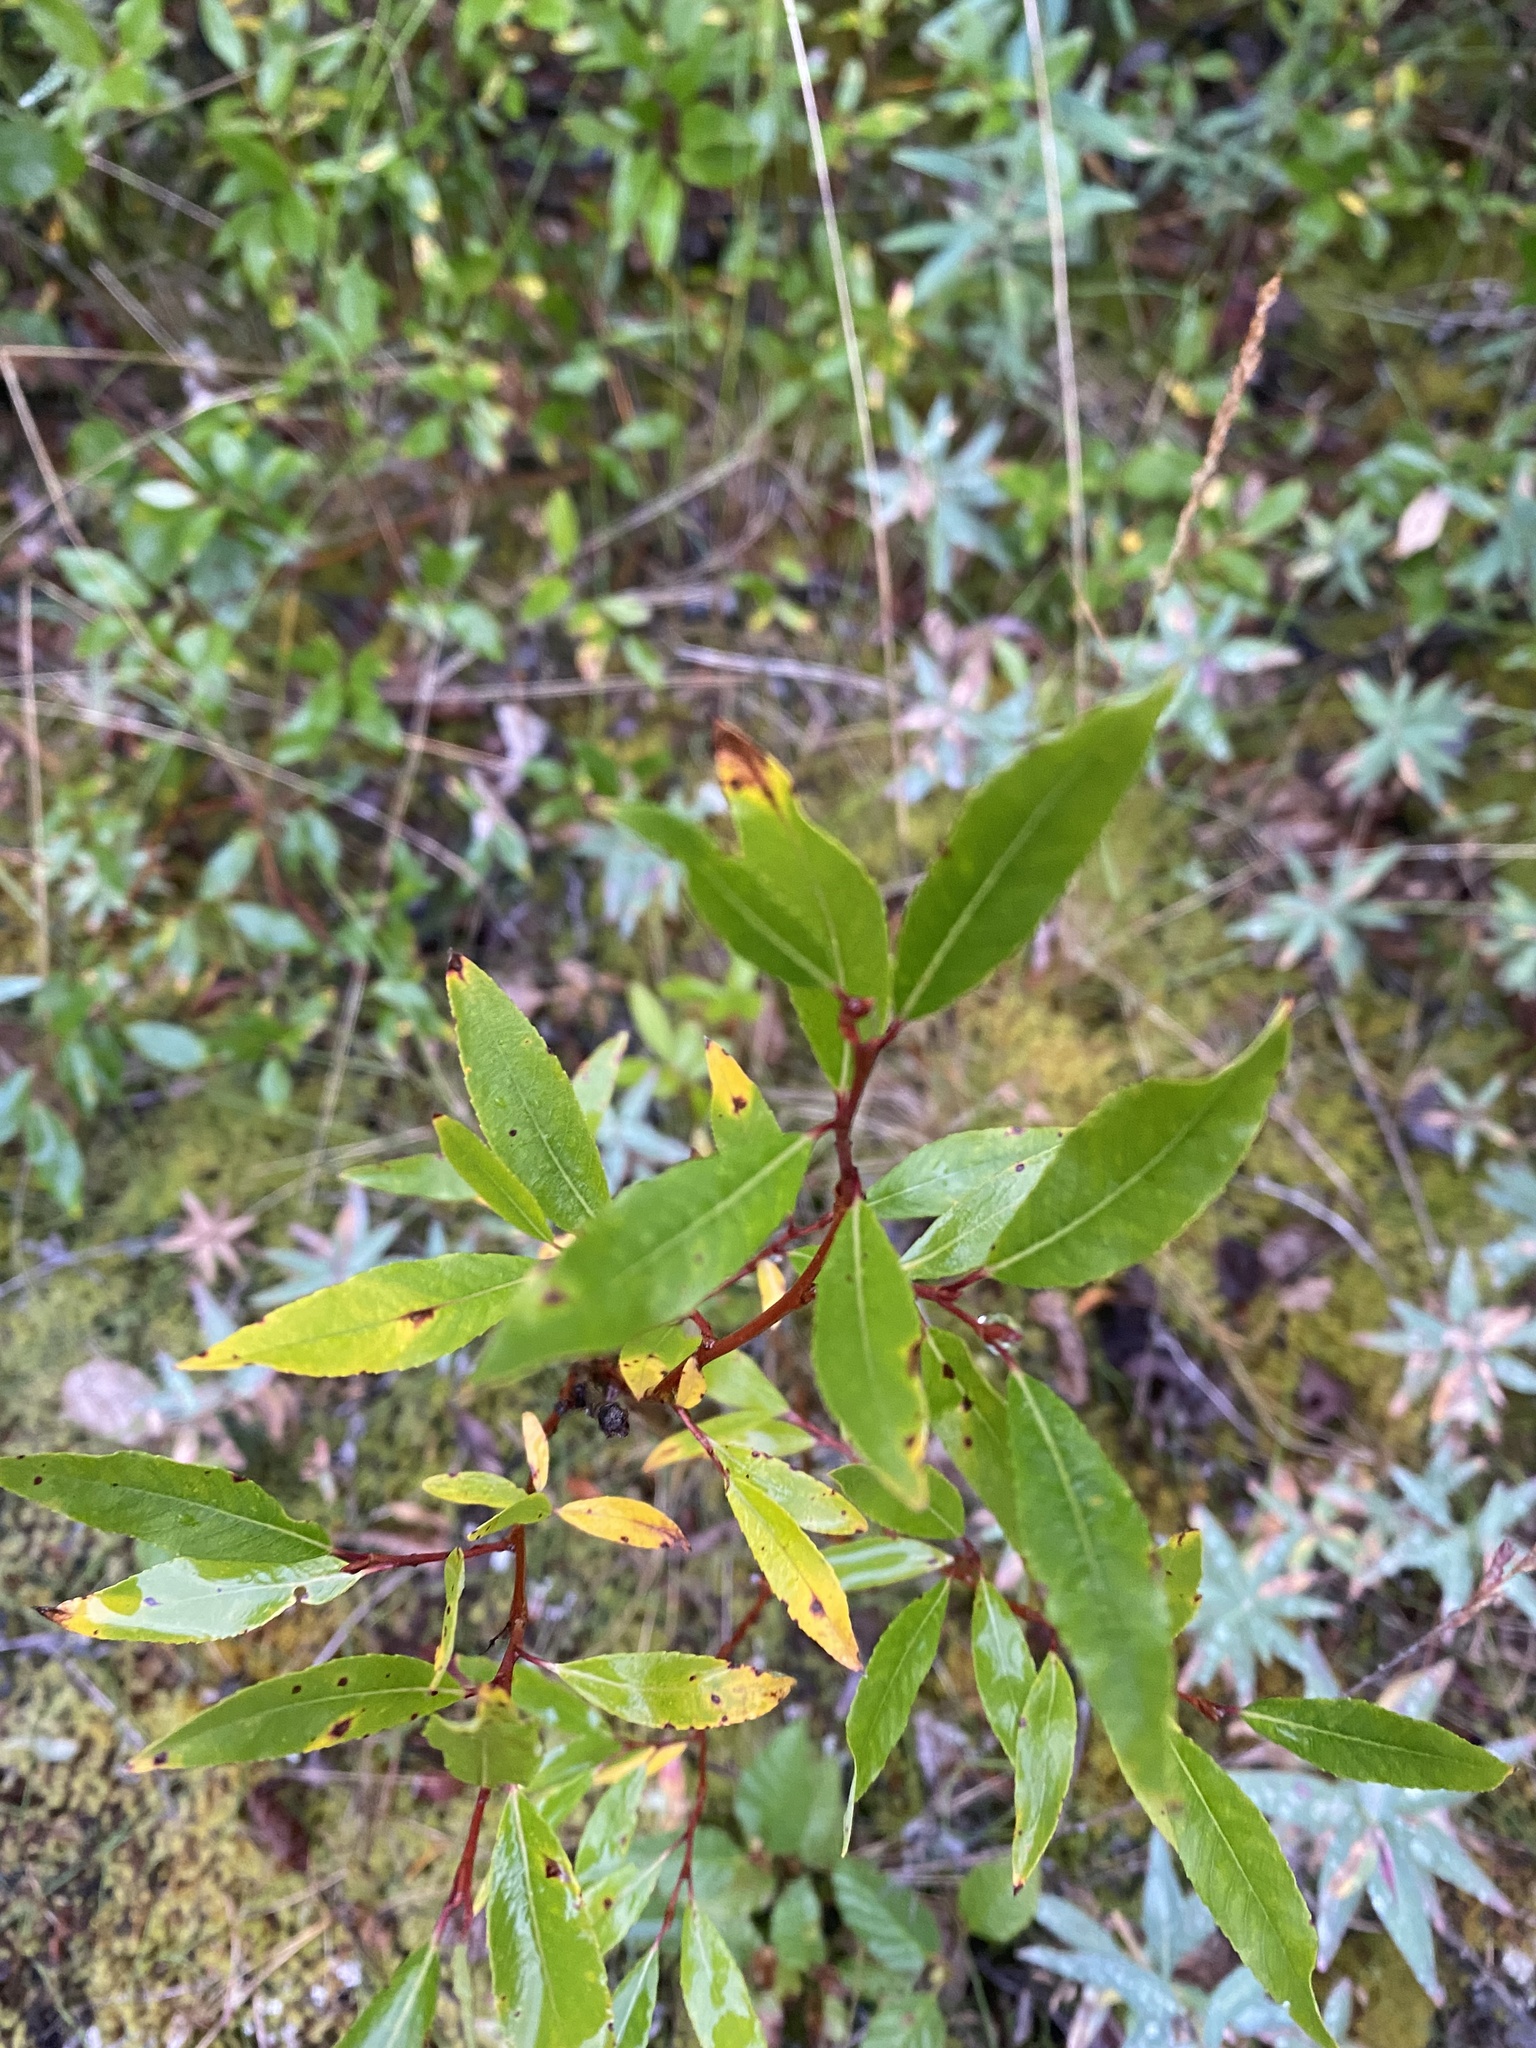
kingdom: Plantae
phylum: Tracheophyta
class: Magnoliopsida
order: Malpighiales
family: Salicaceae
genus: Salix
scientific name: Salix pulchra
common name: Diamond-leaved willow
